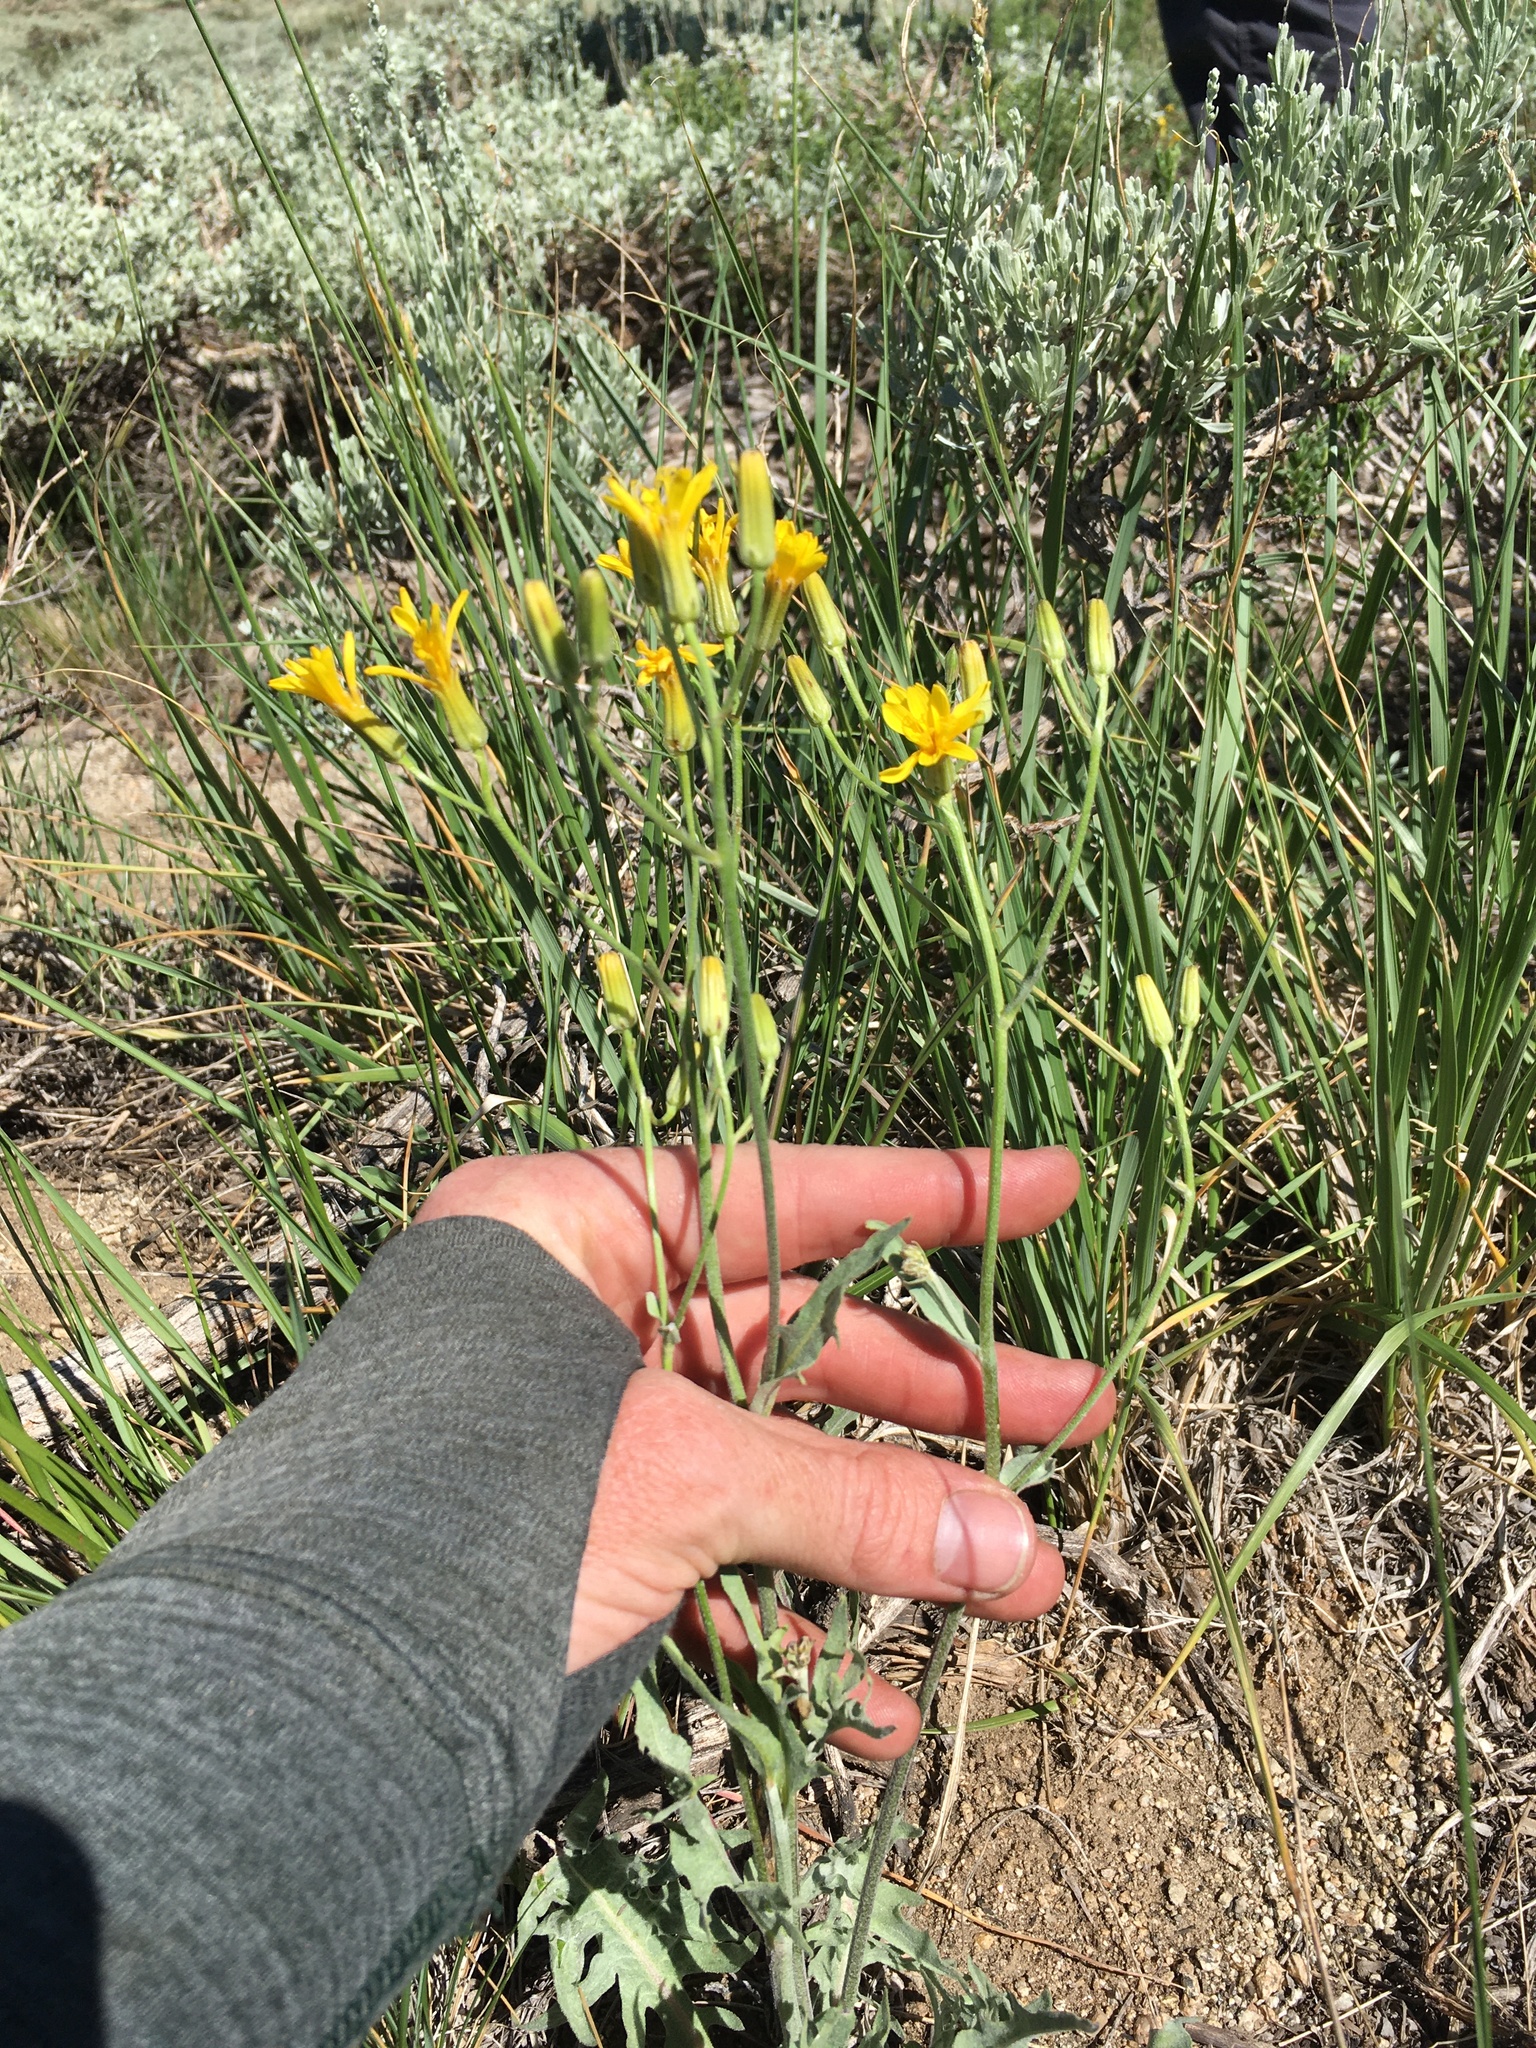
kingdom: Plantae
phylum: Tracheophyta
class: Magnoliopsida
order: Asterales
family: Asteraceae
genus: Crepis
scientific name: Crepis intermedia
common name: Limestone hawk's-beard
